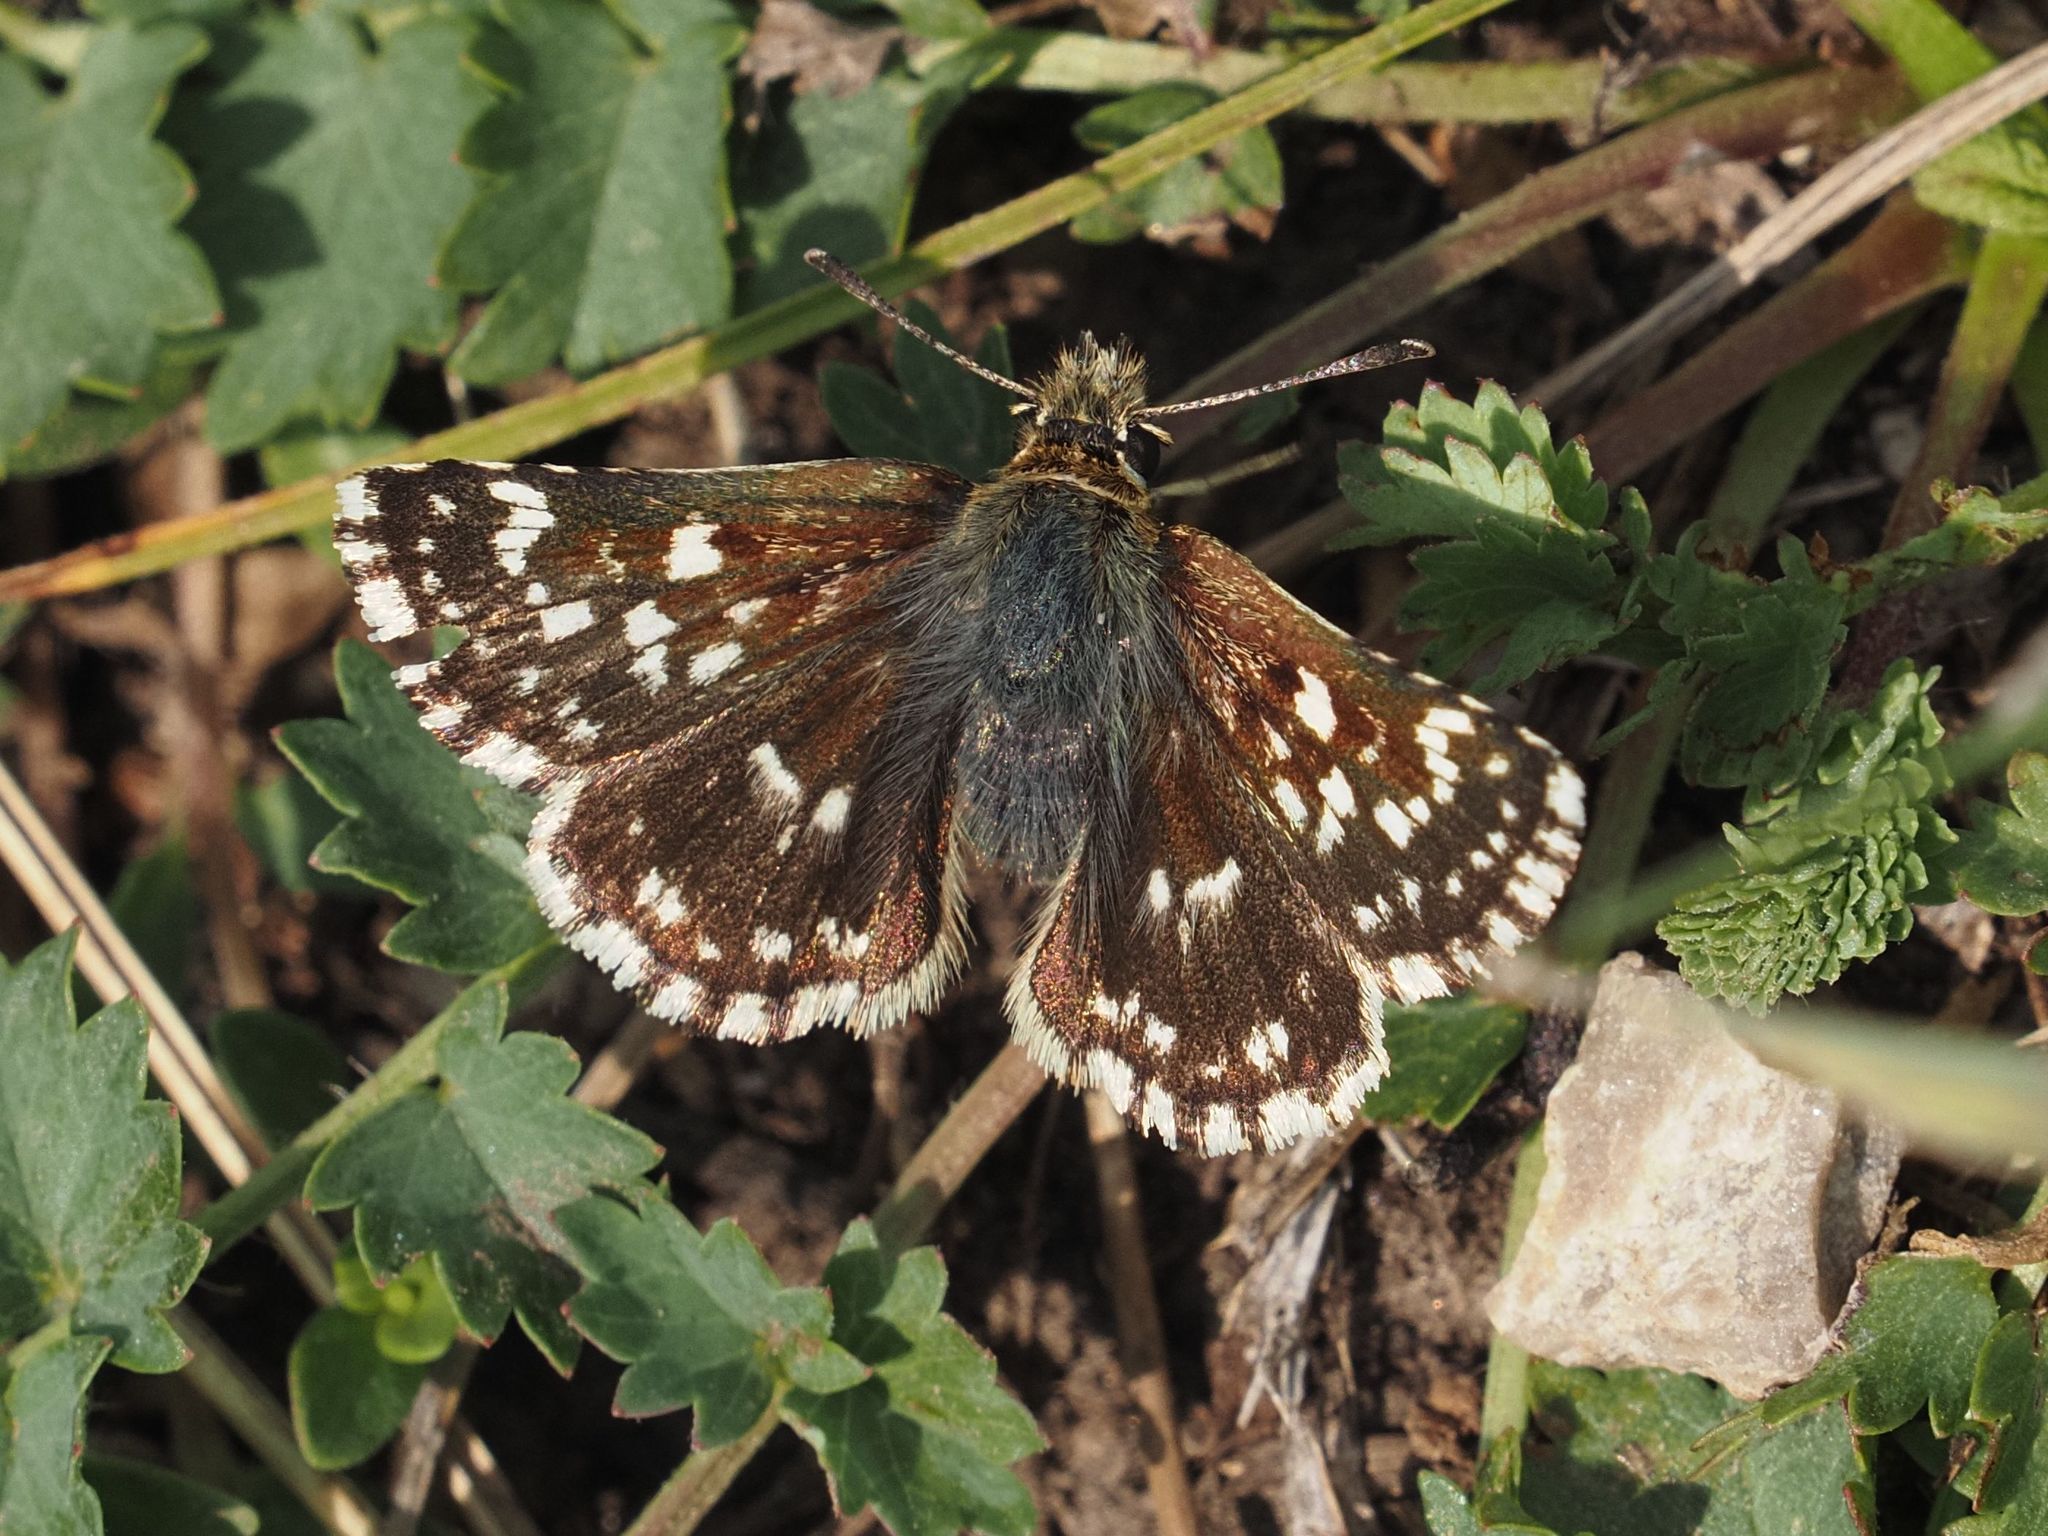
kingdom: Animalia
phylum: Arthropoda
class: Insecta
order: Lepidoptera
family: Hesperiidae
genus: Spialia
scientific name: Spialia sertorius
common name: Red underwing skipper
